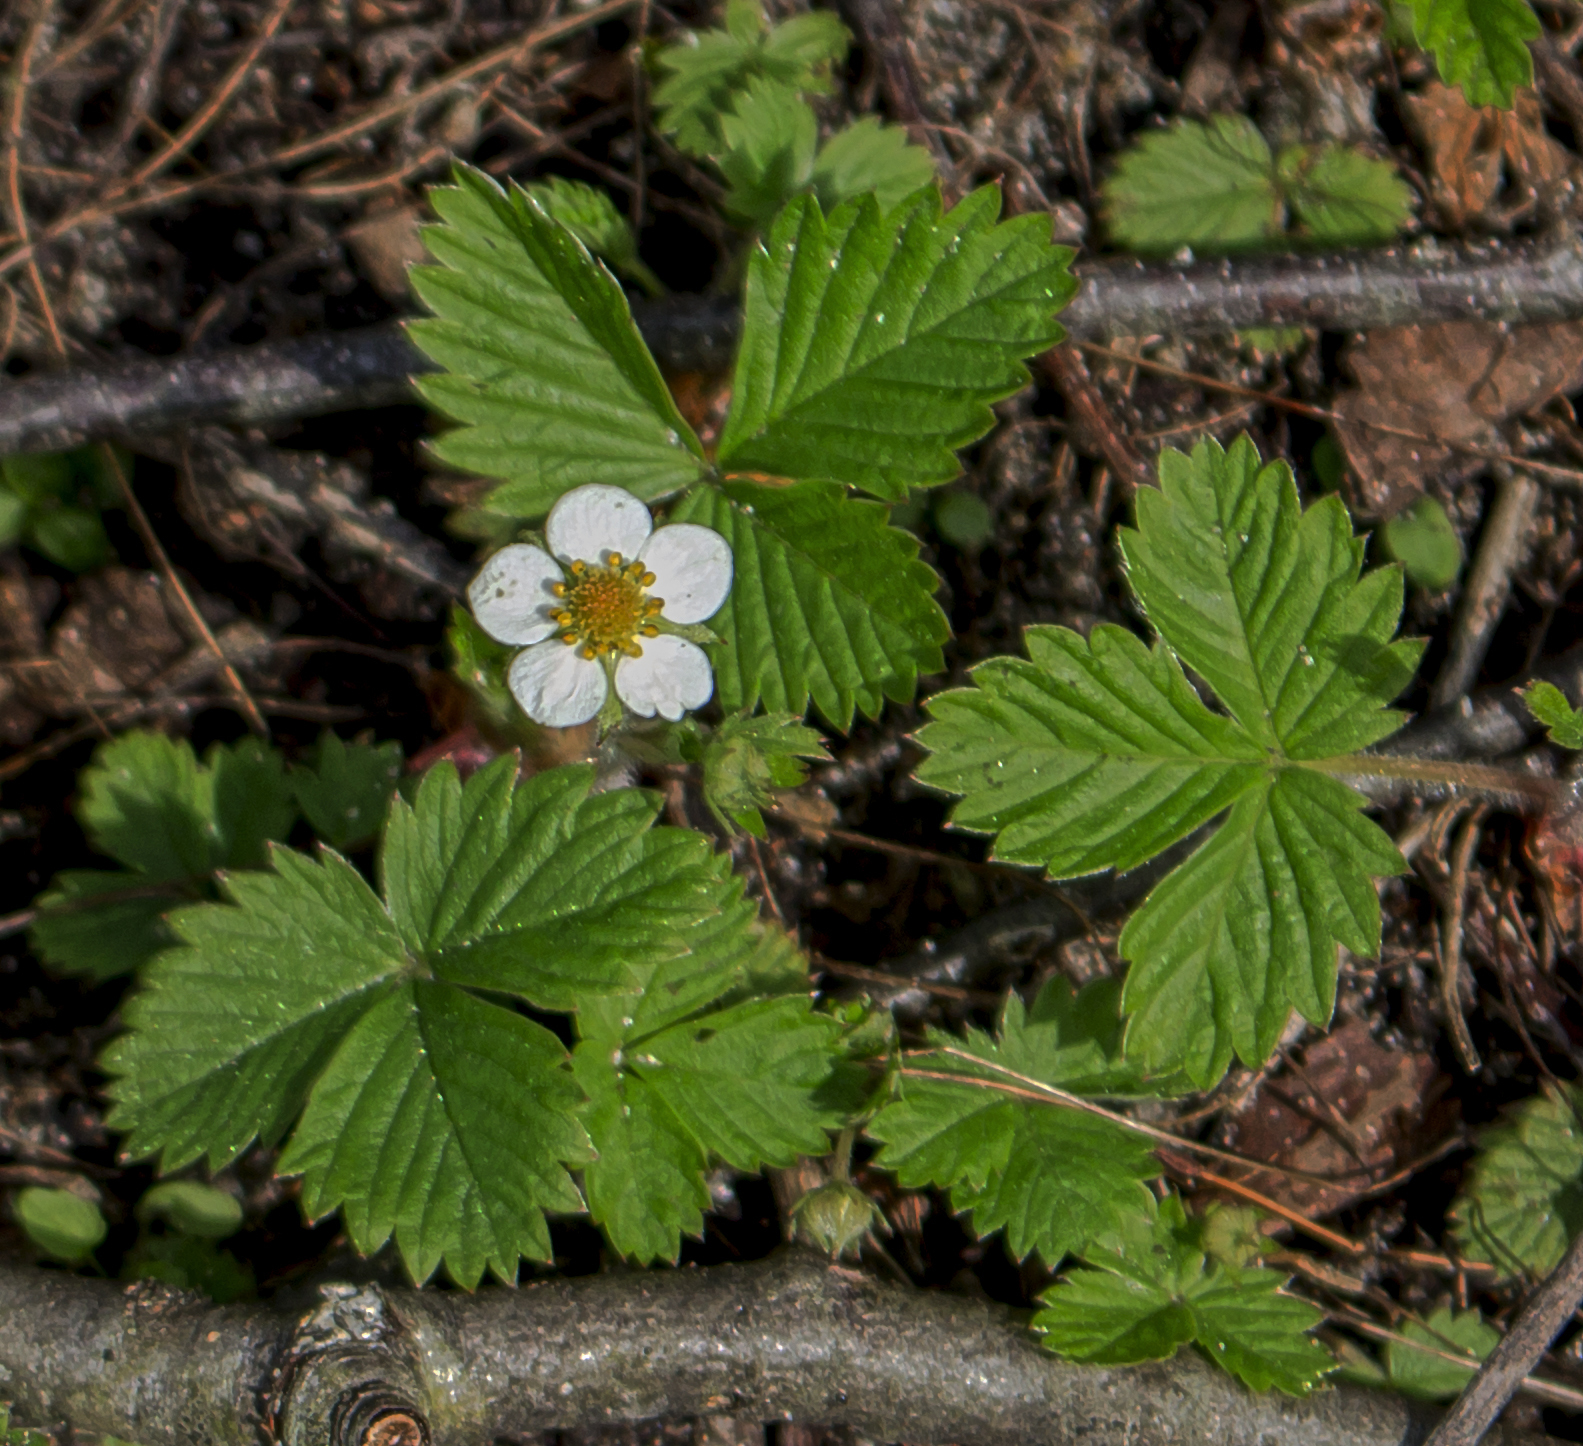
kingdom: Plantae
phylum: Tracheophyta
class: Magnoliopsida
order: Rosales
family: Rosaceae
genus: Fragaria
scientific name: Fragaria vesca
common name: Wild strawberry
